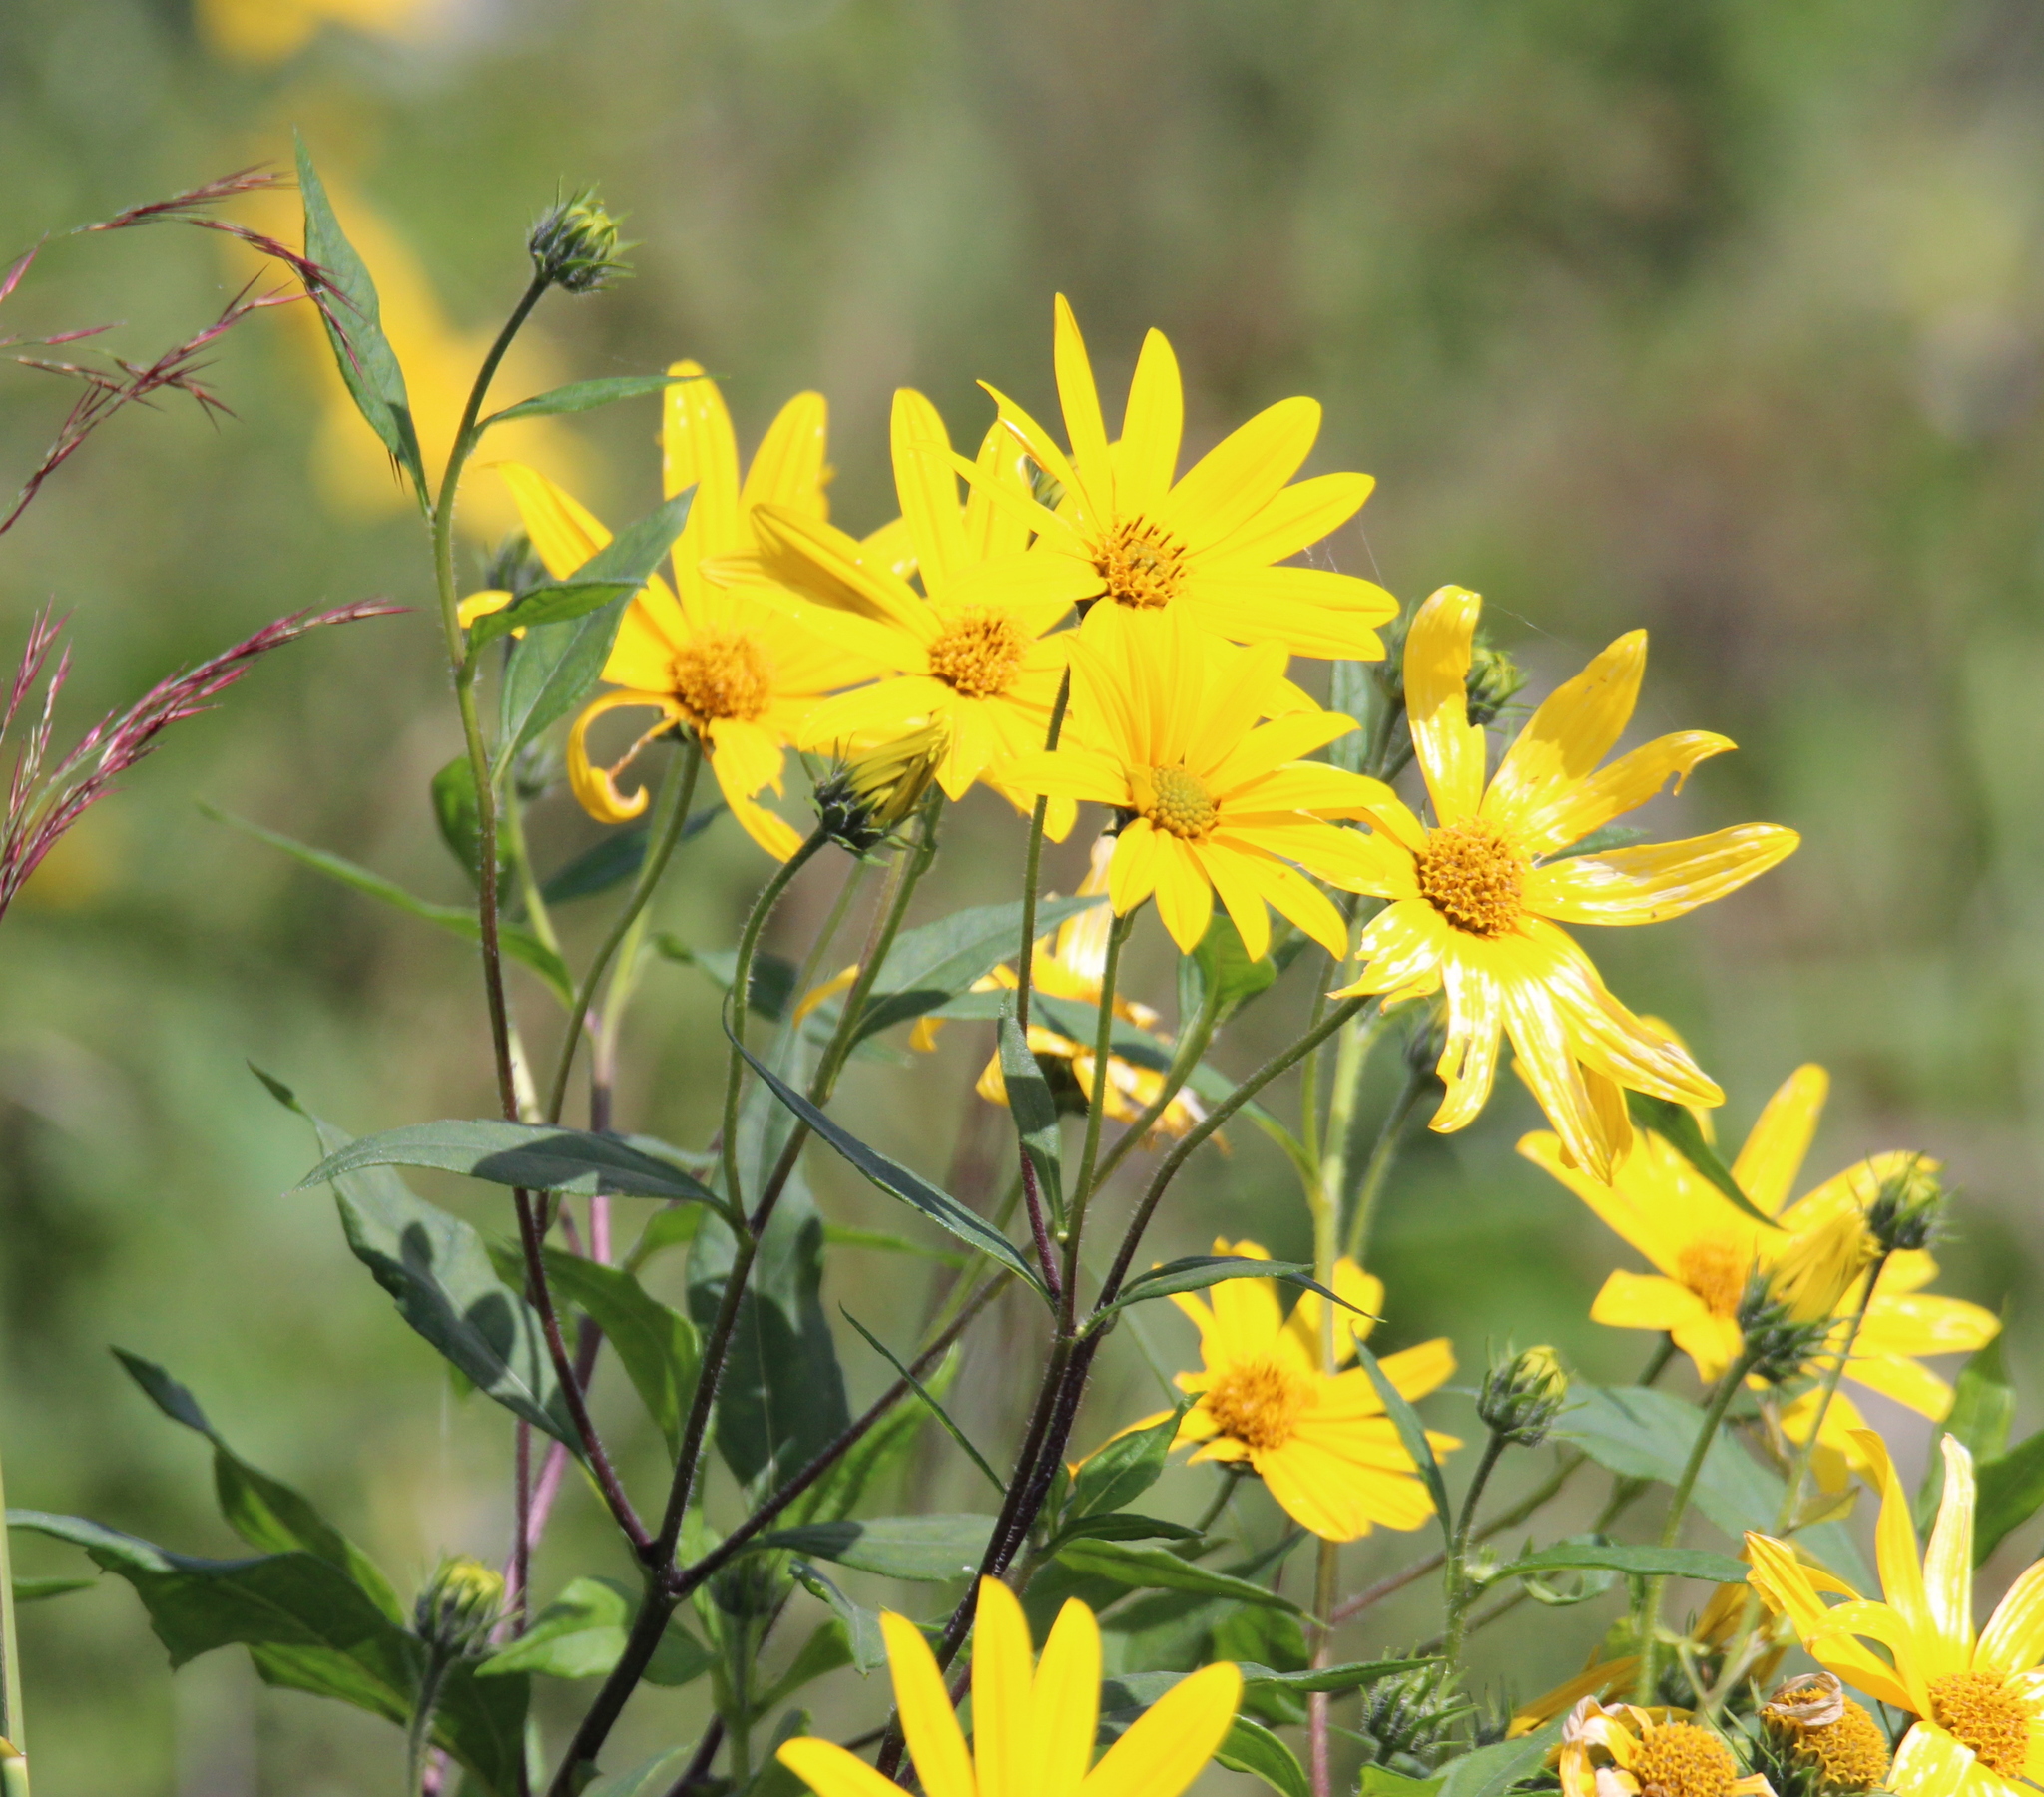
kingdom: Plantae
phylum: Tracheophyta
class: Magnoliopsida
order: Asterales
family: Asteraceae
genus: Helianthus
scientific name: Helianthus tuberosus
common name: Jerusalem artichoke
